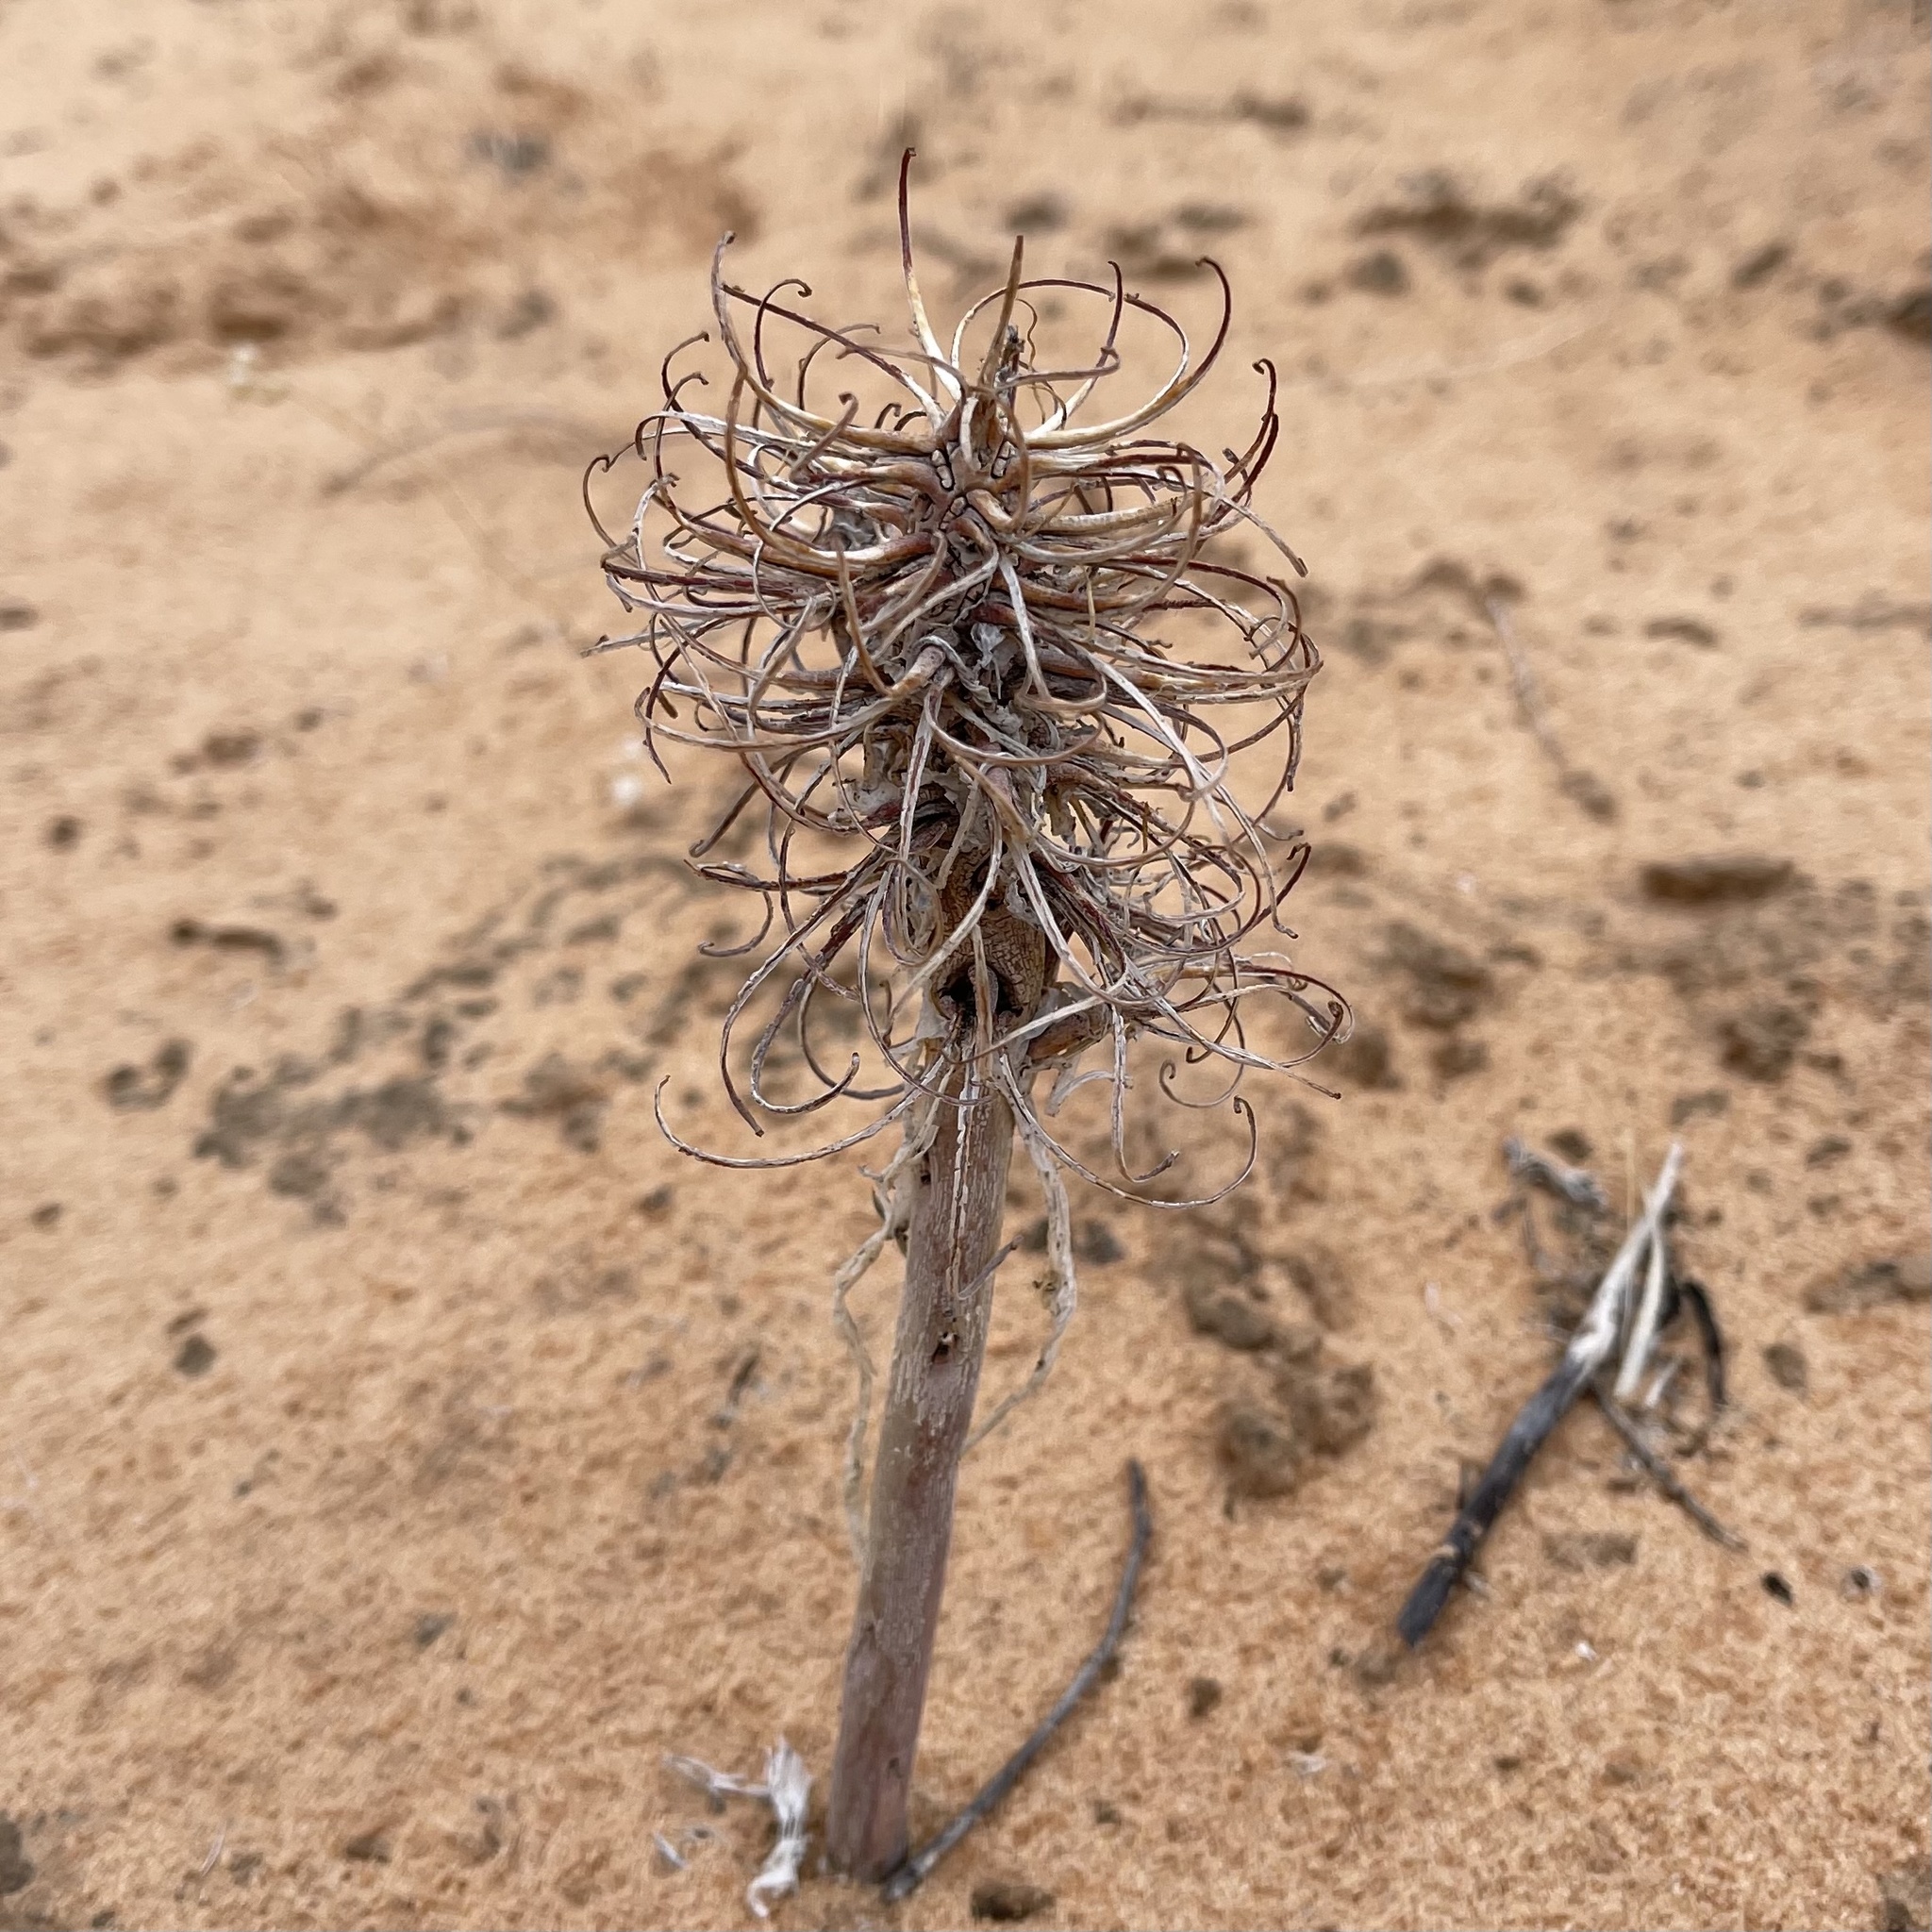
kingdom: Plantae
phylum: Tracheophyta
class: Magnoliopsida
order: Myrtales
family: Onagraceae
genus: Oenothera
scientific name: Oenothera deltoides
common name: Basket evening-primrose
